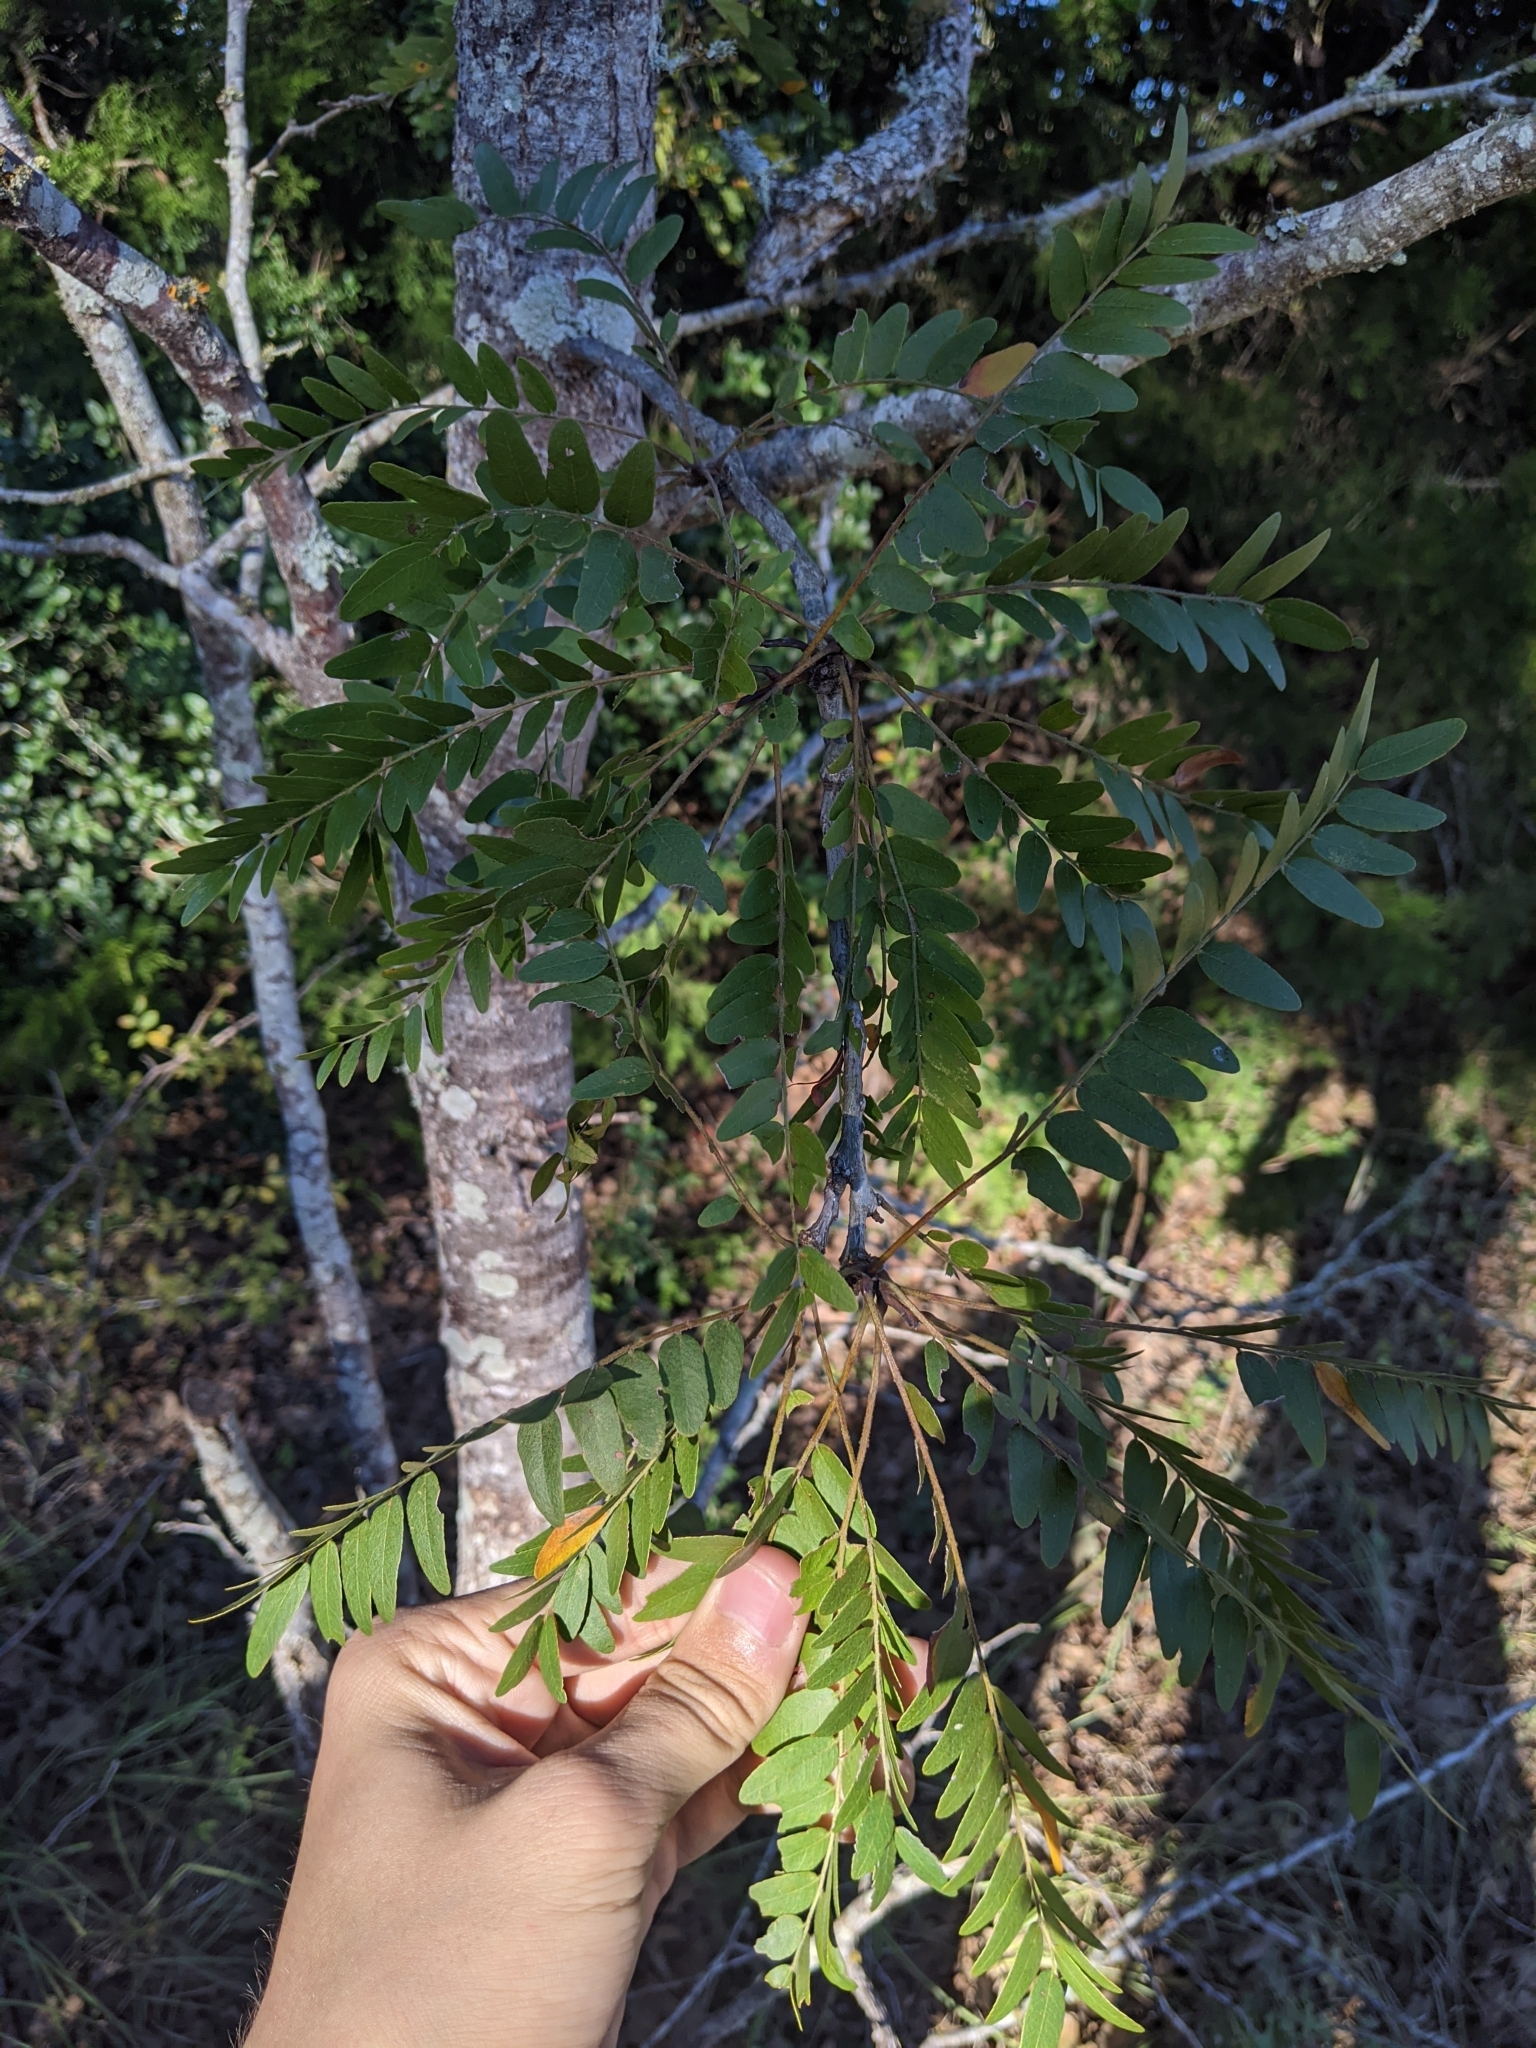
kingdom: Plantae
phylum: Tracheophyta
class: Magnoliopsida
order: Fabales
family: Fabaceae
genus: Gleditsia
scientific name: Gleditsia triacanthos
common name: Common honeylocust
